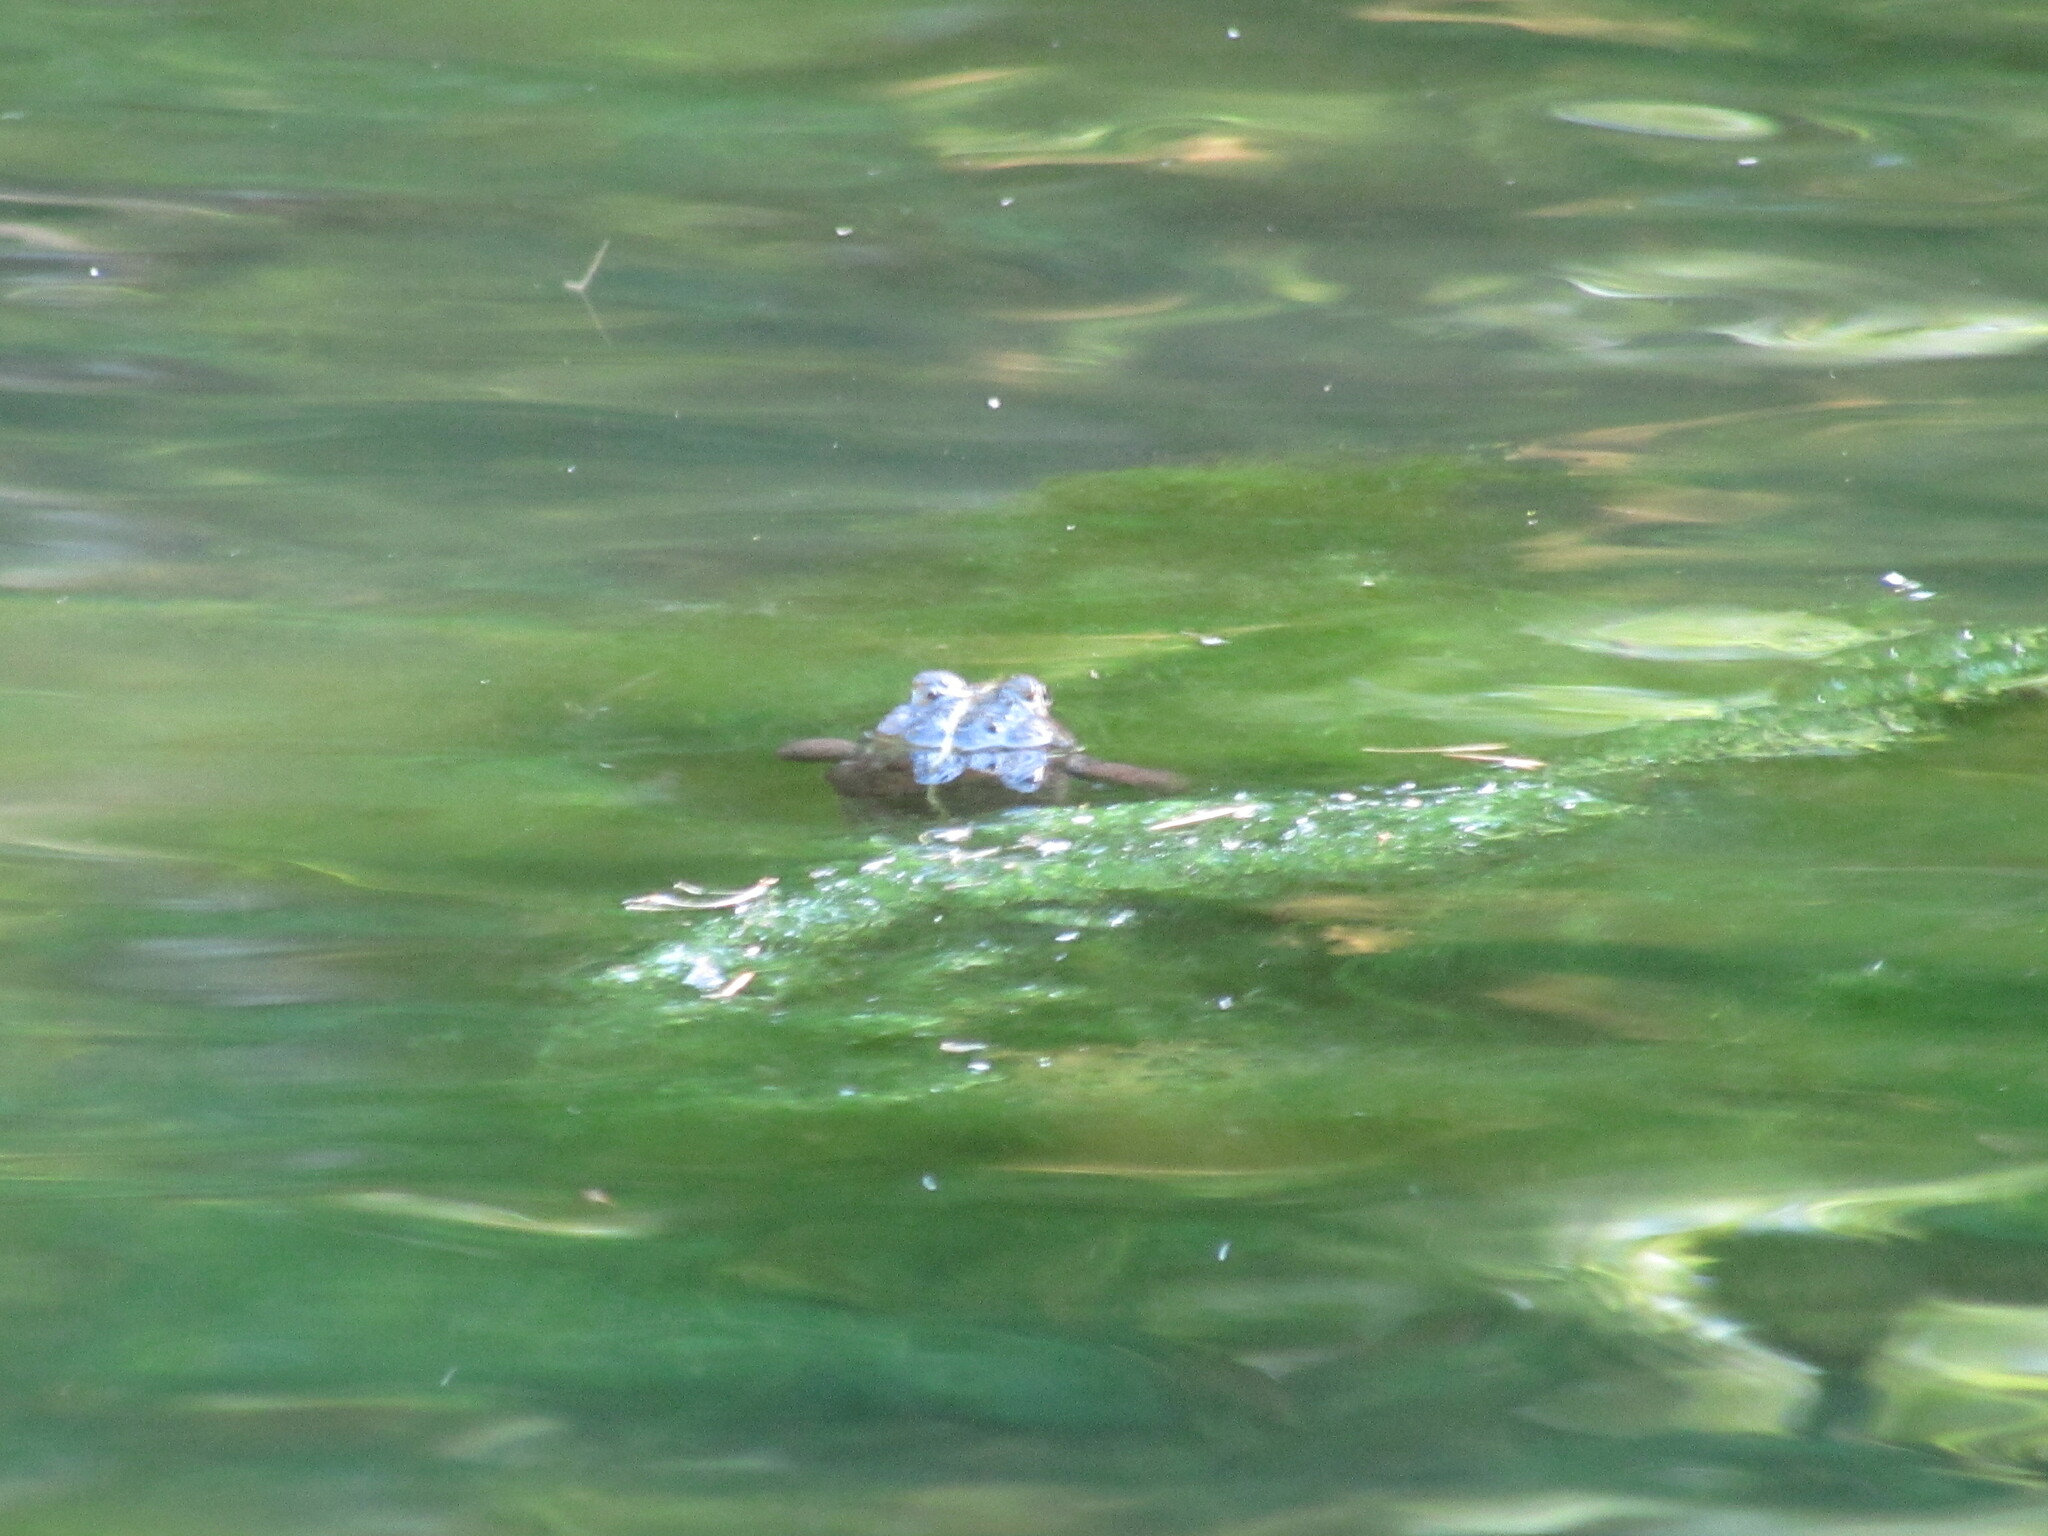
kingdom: Animalia
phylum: Chordata
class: Amphibia
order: Anura
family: Bufonidae
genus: Anaxyrus
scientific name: Anaxyrus boreas
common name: Western toad
